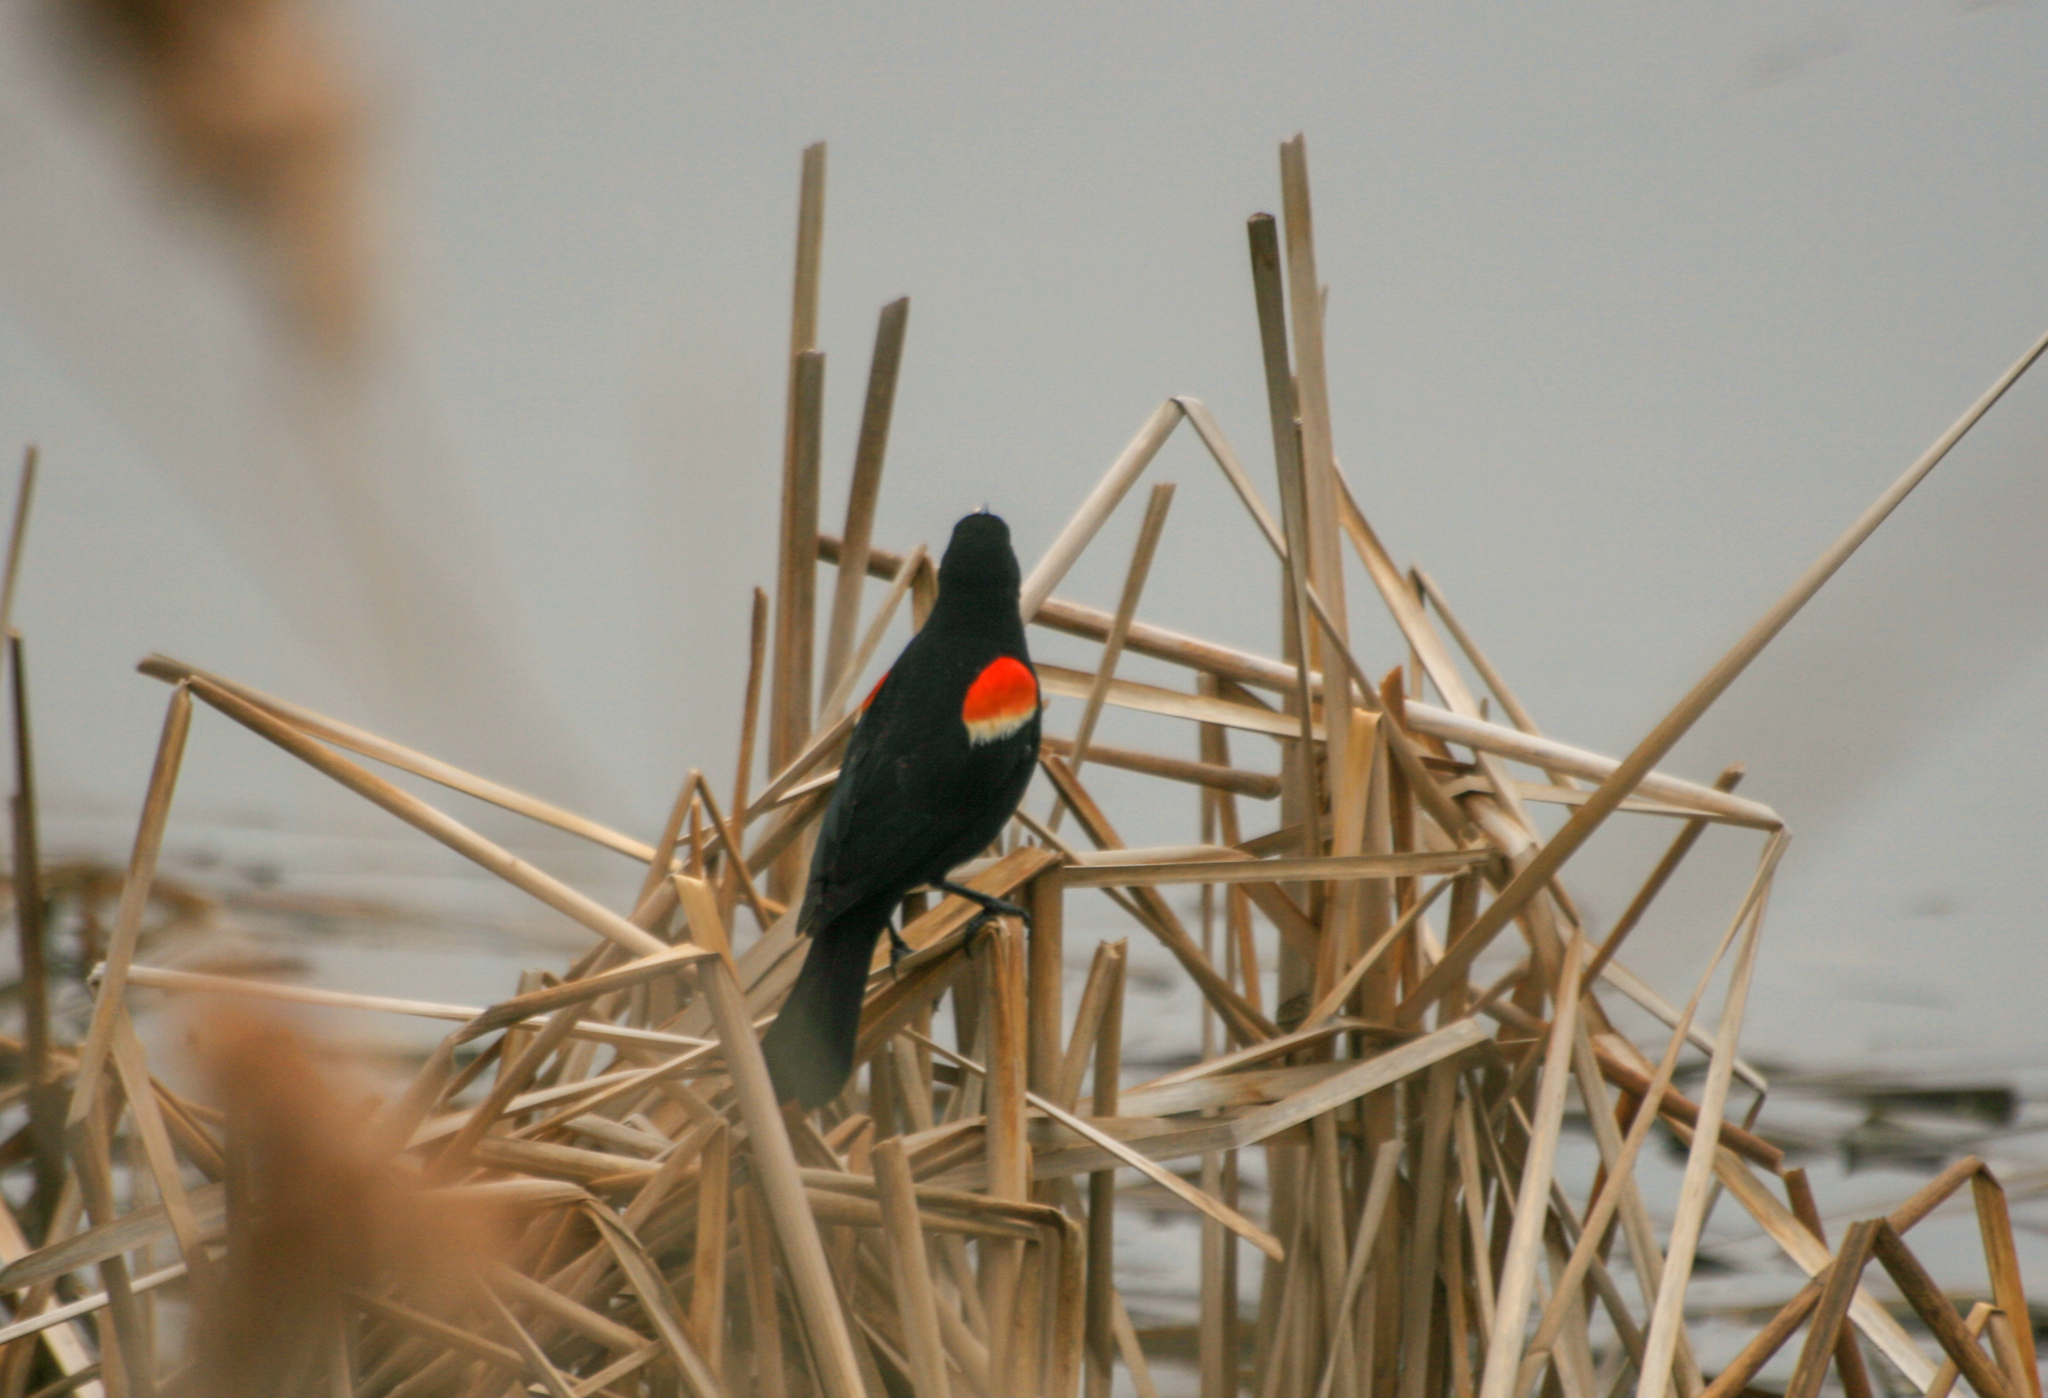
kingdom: Animalia
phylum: Chordata
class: Aves
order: Passeriformes
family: Icteridae
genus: Agelaius
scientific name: Agelaius phoeniceus
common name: Red-winged blackbird
